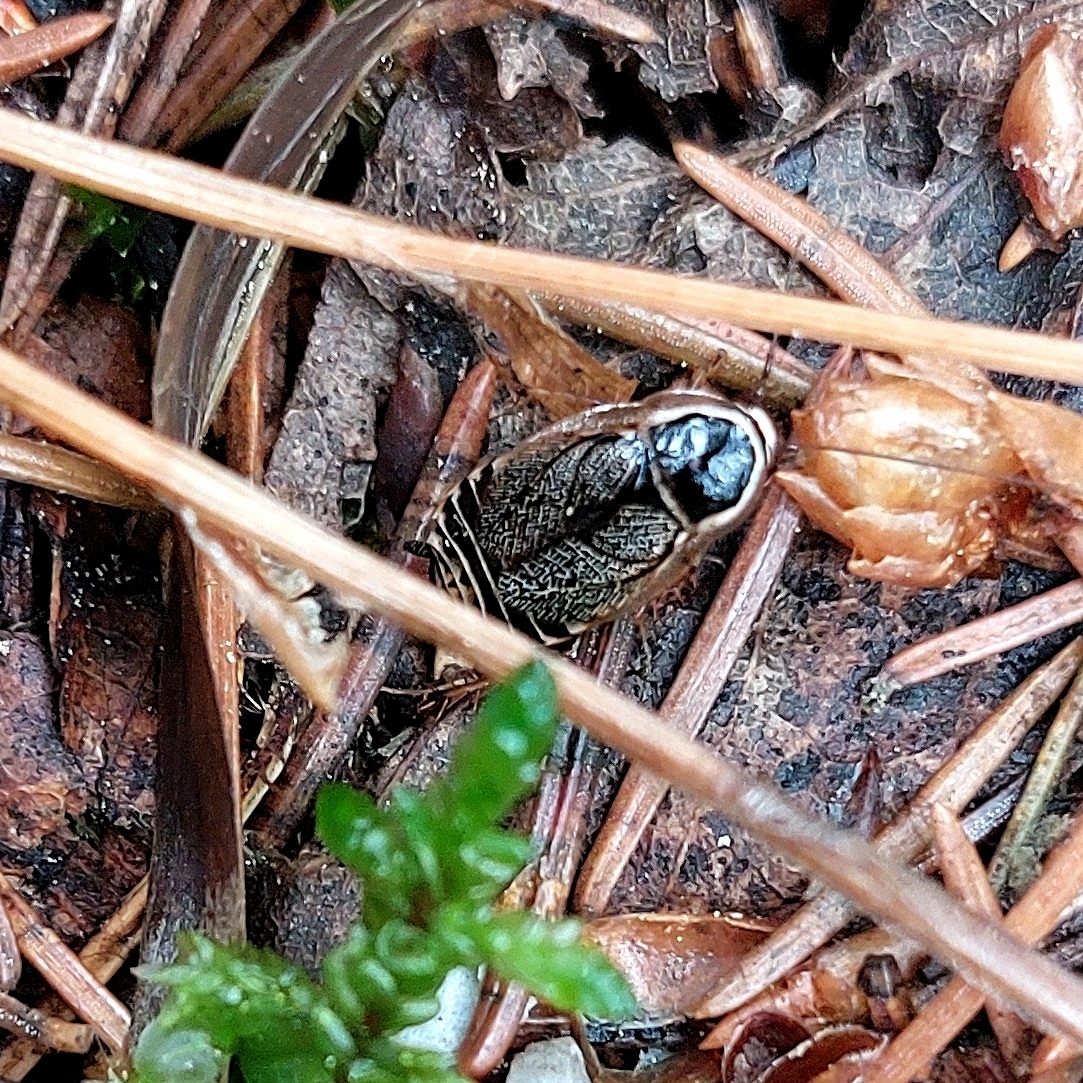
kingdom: Animalia
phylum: Arthropoda
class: Insecta
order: Blattodea
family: Ectobiidae
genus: Ectobius
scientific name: Ectobius sylvestris
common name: Forest cockroach
